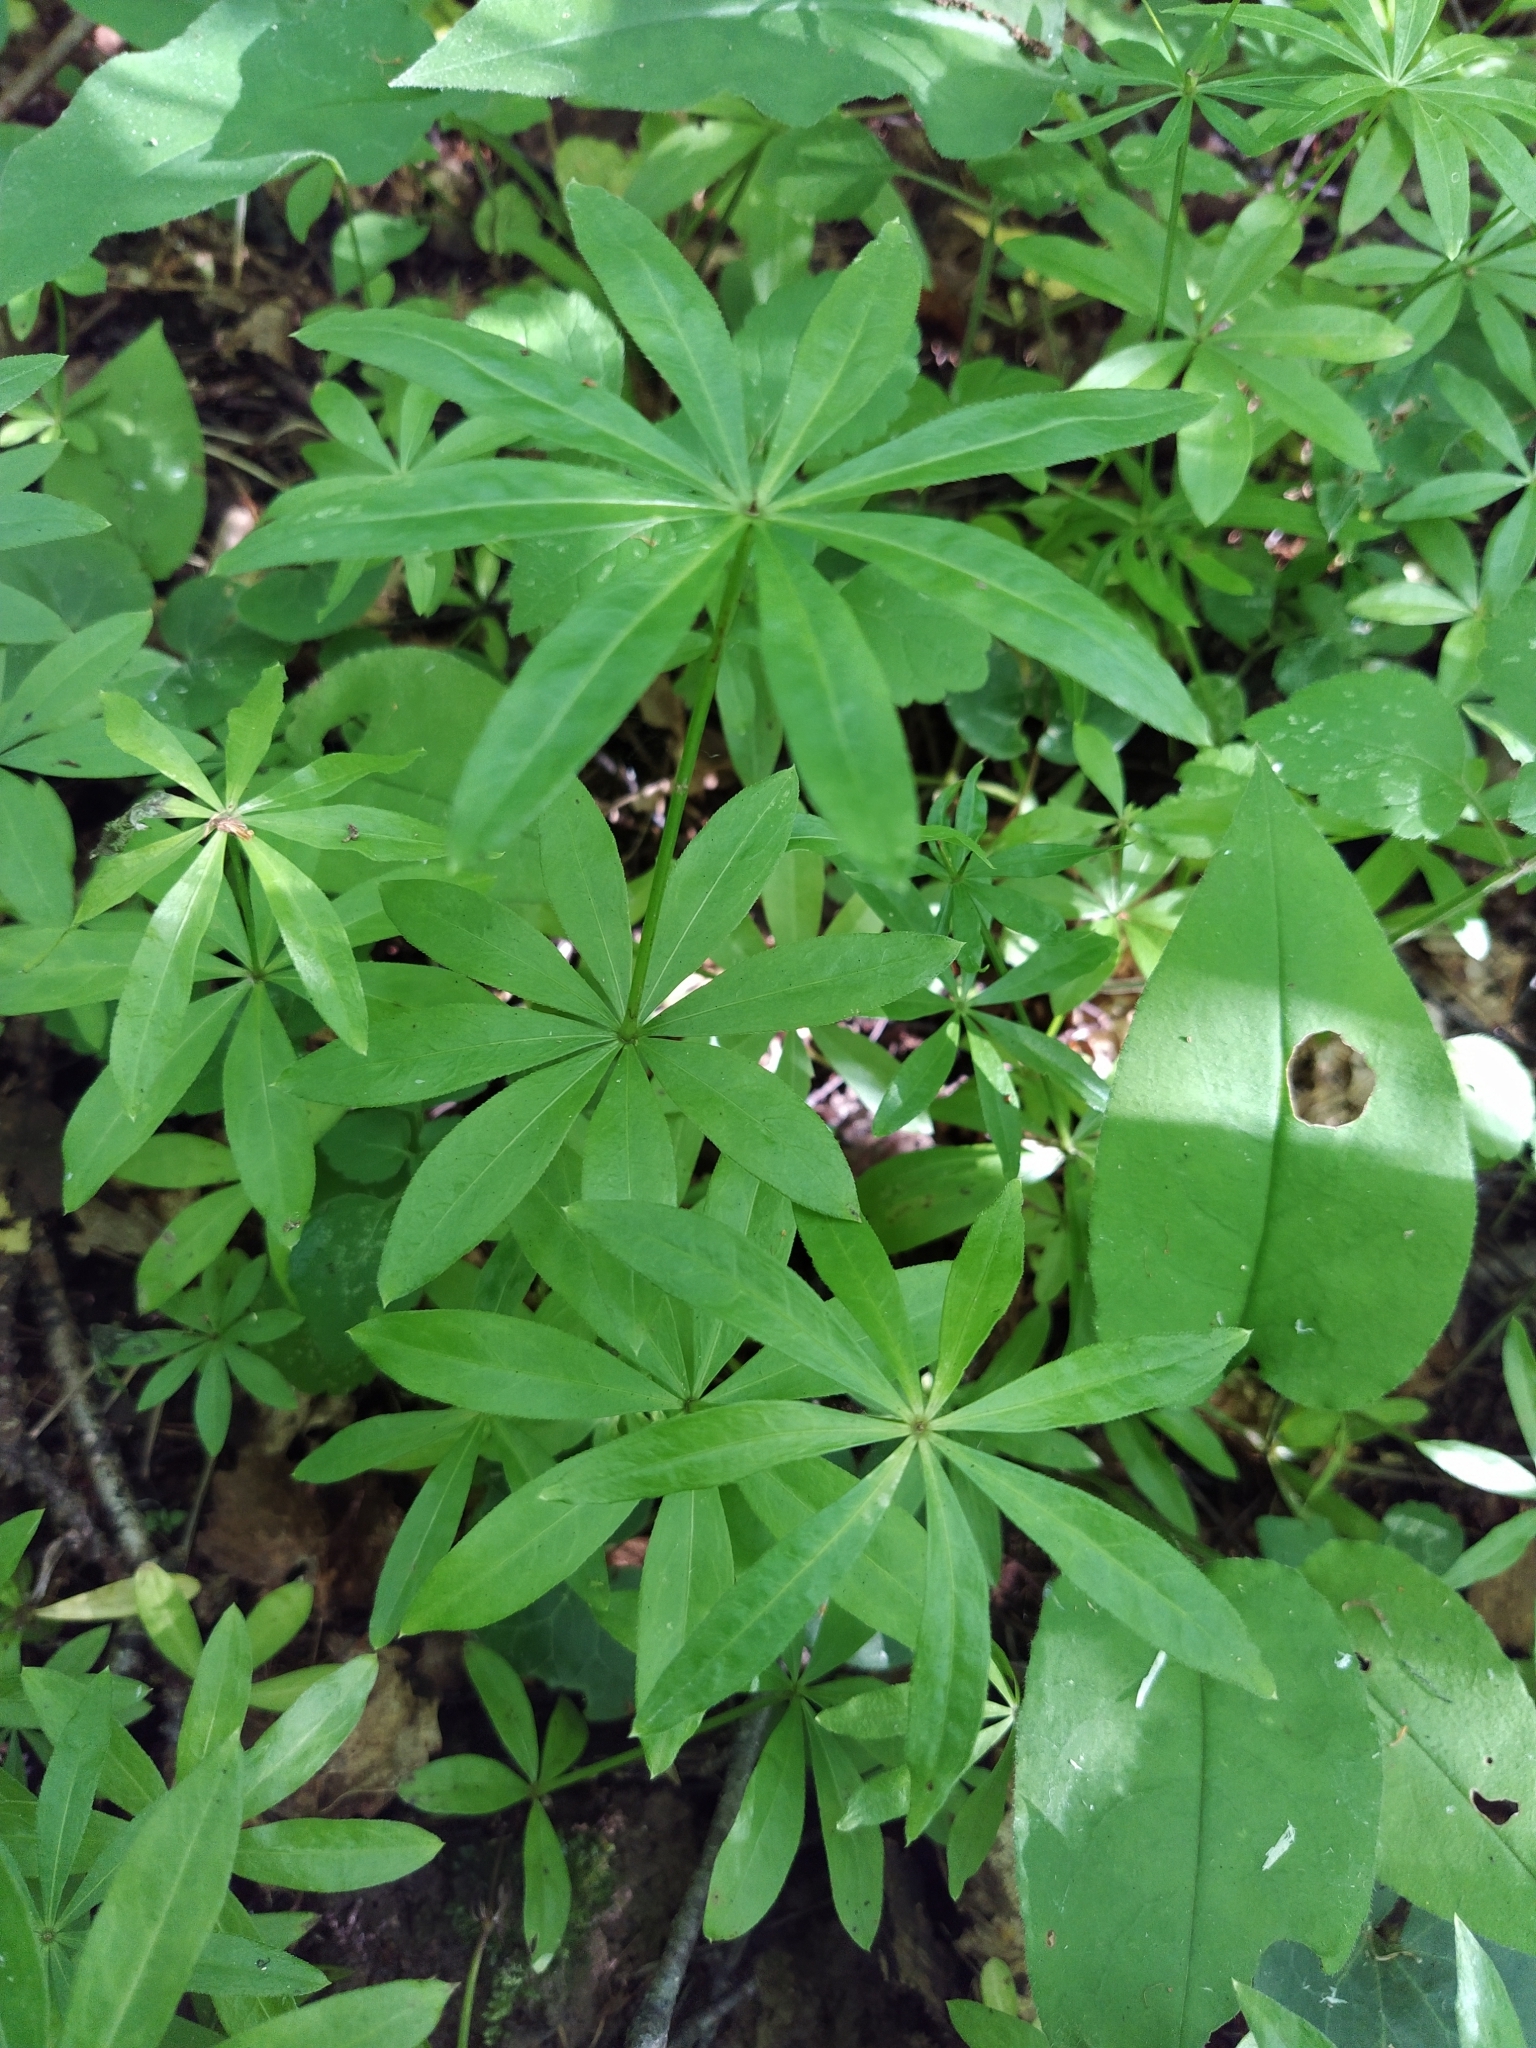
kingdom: Plantae
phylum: Tracheophyta
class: Magnoliopsida
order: Gentianales
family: Rubiaceae
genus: Galium
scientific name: Galium odoratum
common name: Sweet woodruff
